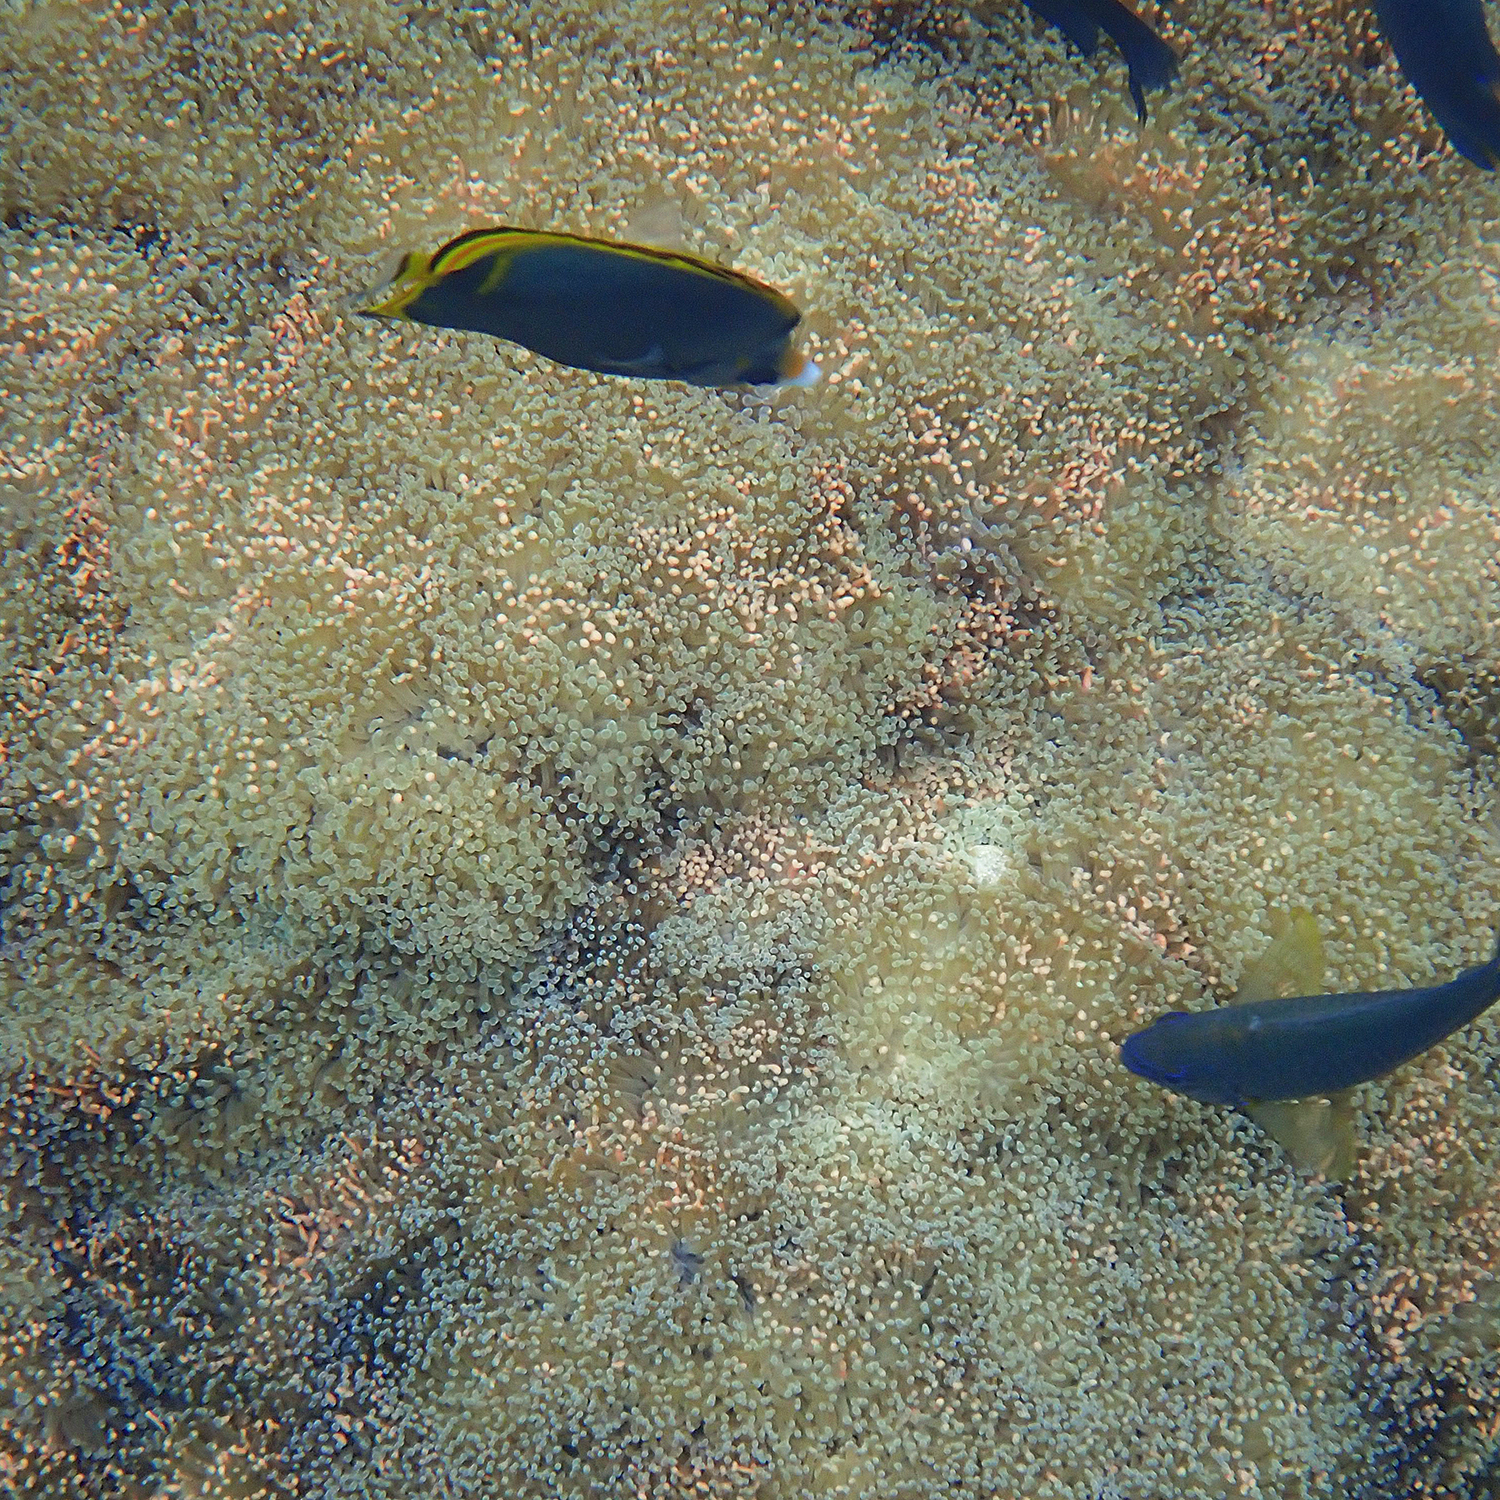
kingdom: Animalia
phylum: Cnidaria
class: Anthozoa
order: Scleractinia
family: Euphylliidae
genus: Fimbriaphyllia
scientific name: Fimbriaphyllia ancora
